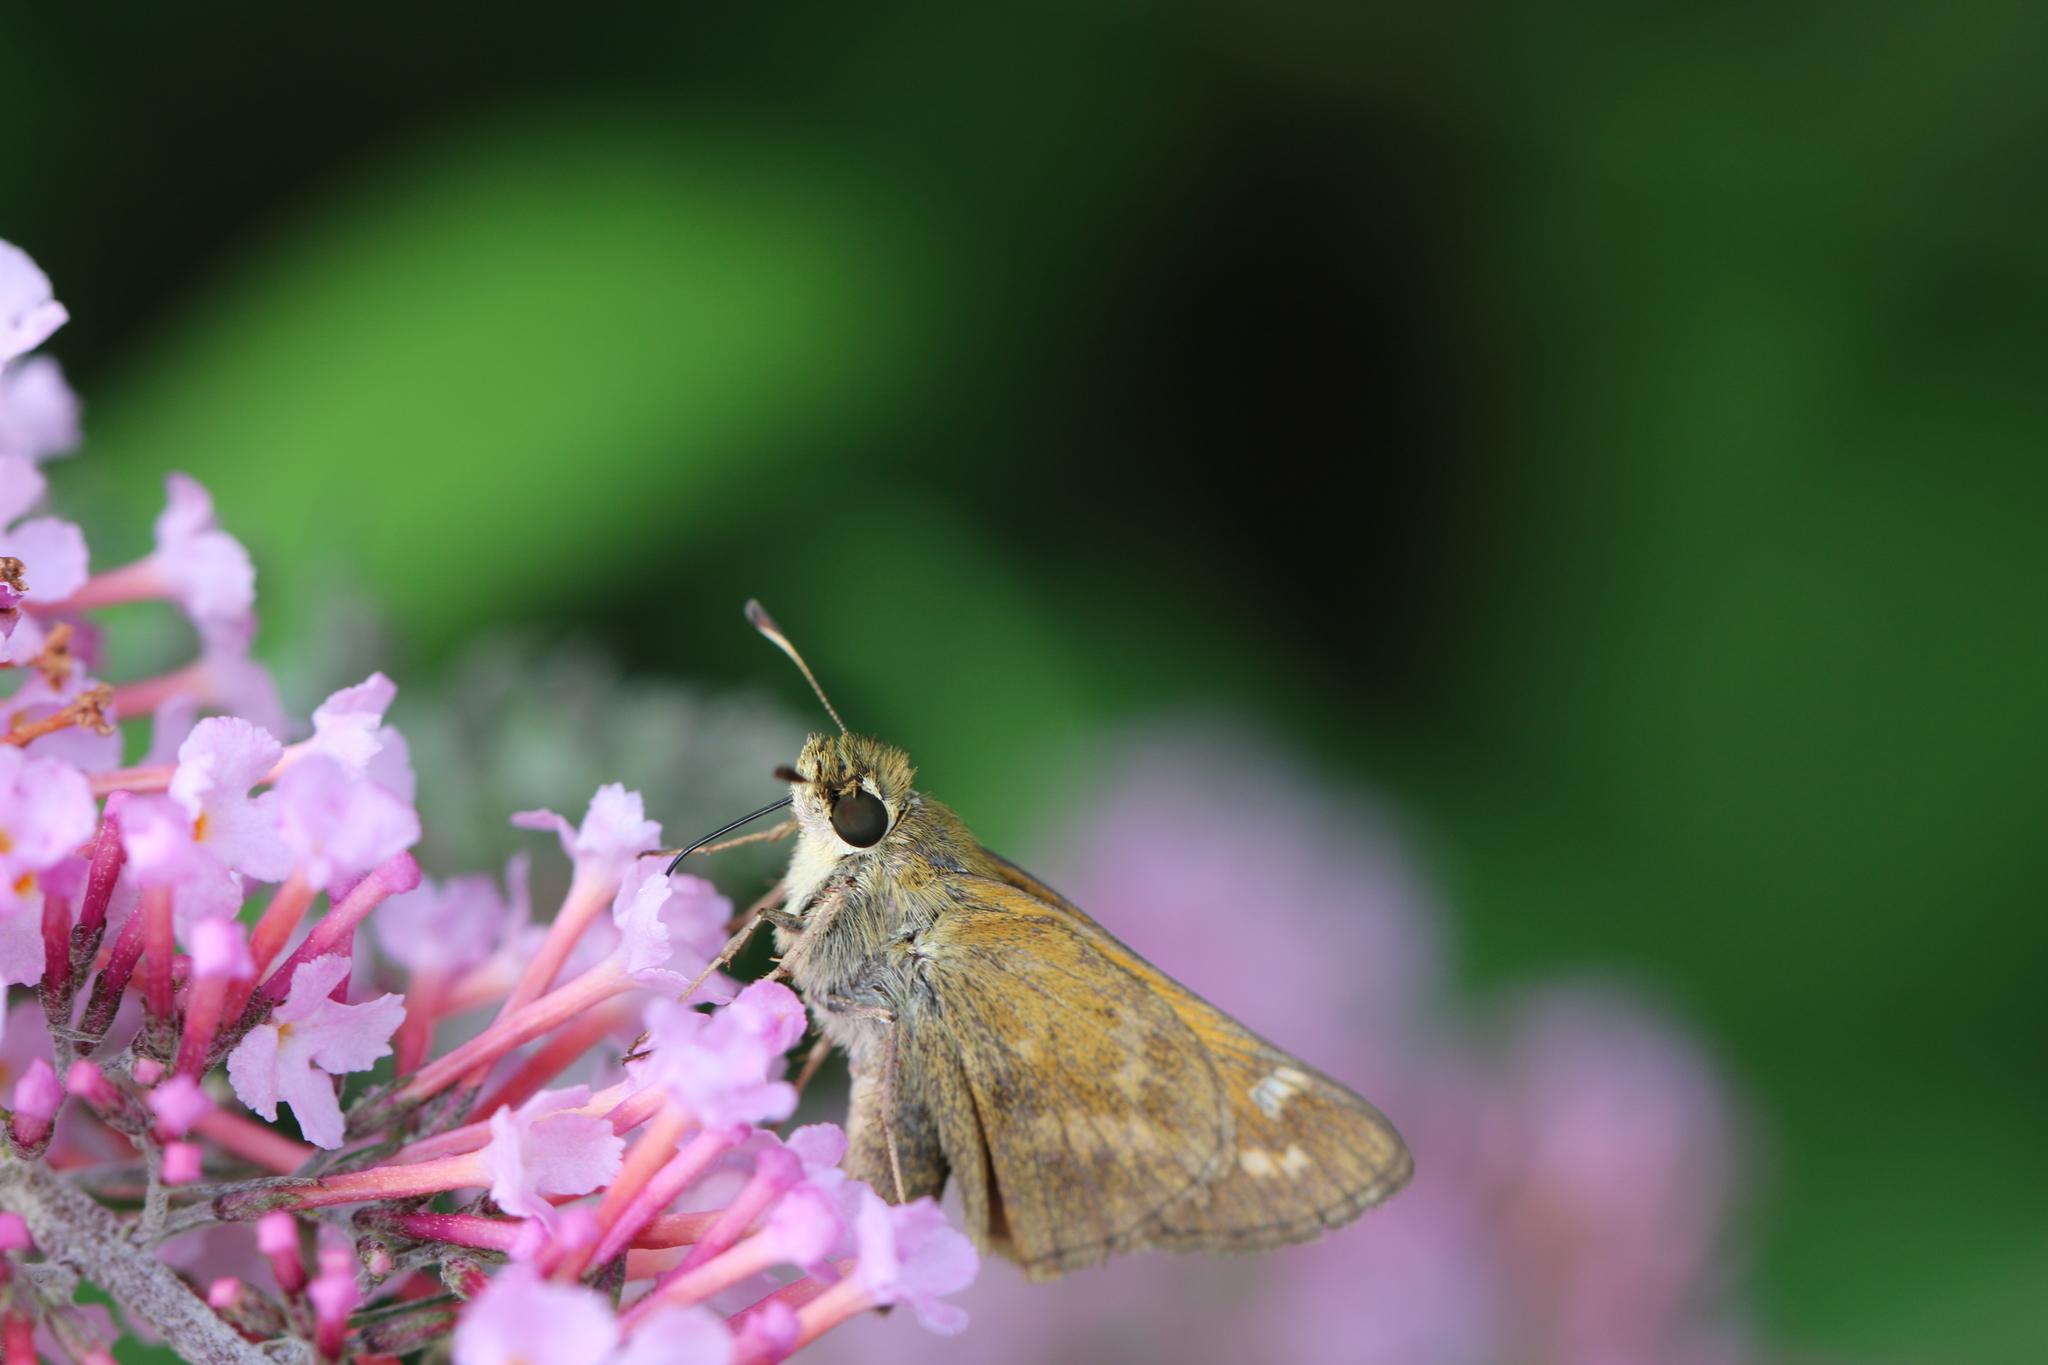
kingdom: Animalia
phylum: Arthropoda
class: Insecta
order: Lepidoptera
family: Hesperiidae
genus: Atalopedes
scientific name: Atalopedes
